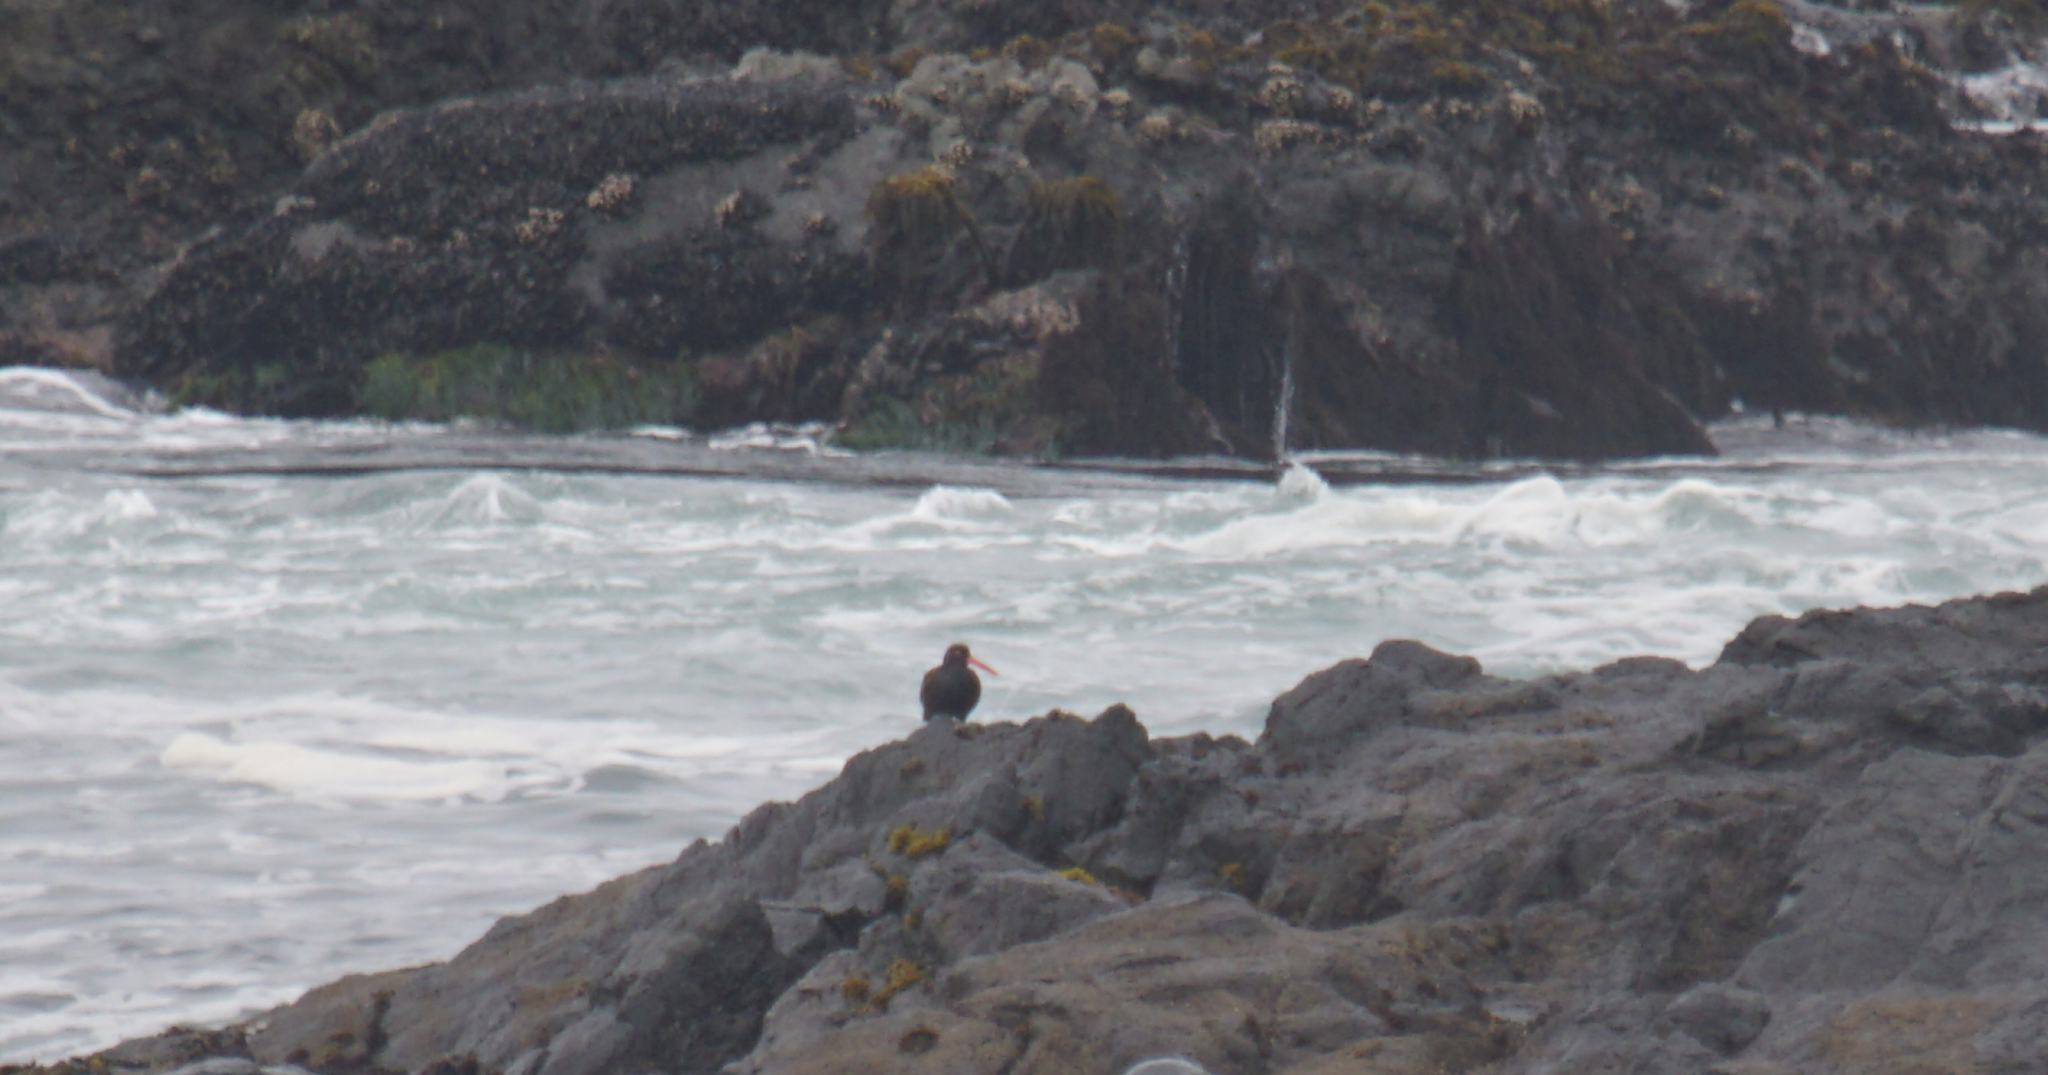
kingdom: Animalia
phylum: Chordata
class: Aves
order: Charadriiformes
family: Haematopodidae
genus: Haematopus
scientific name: Haematopus bachmani
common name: Black oystercatcher
